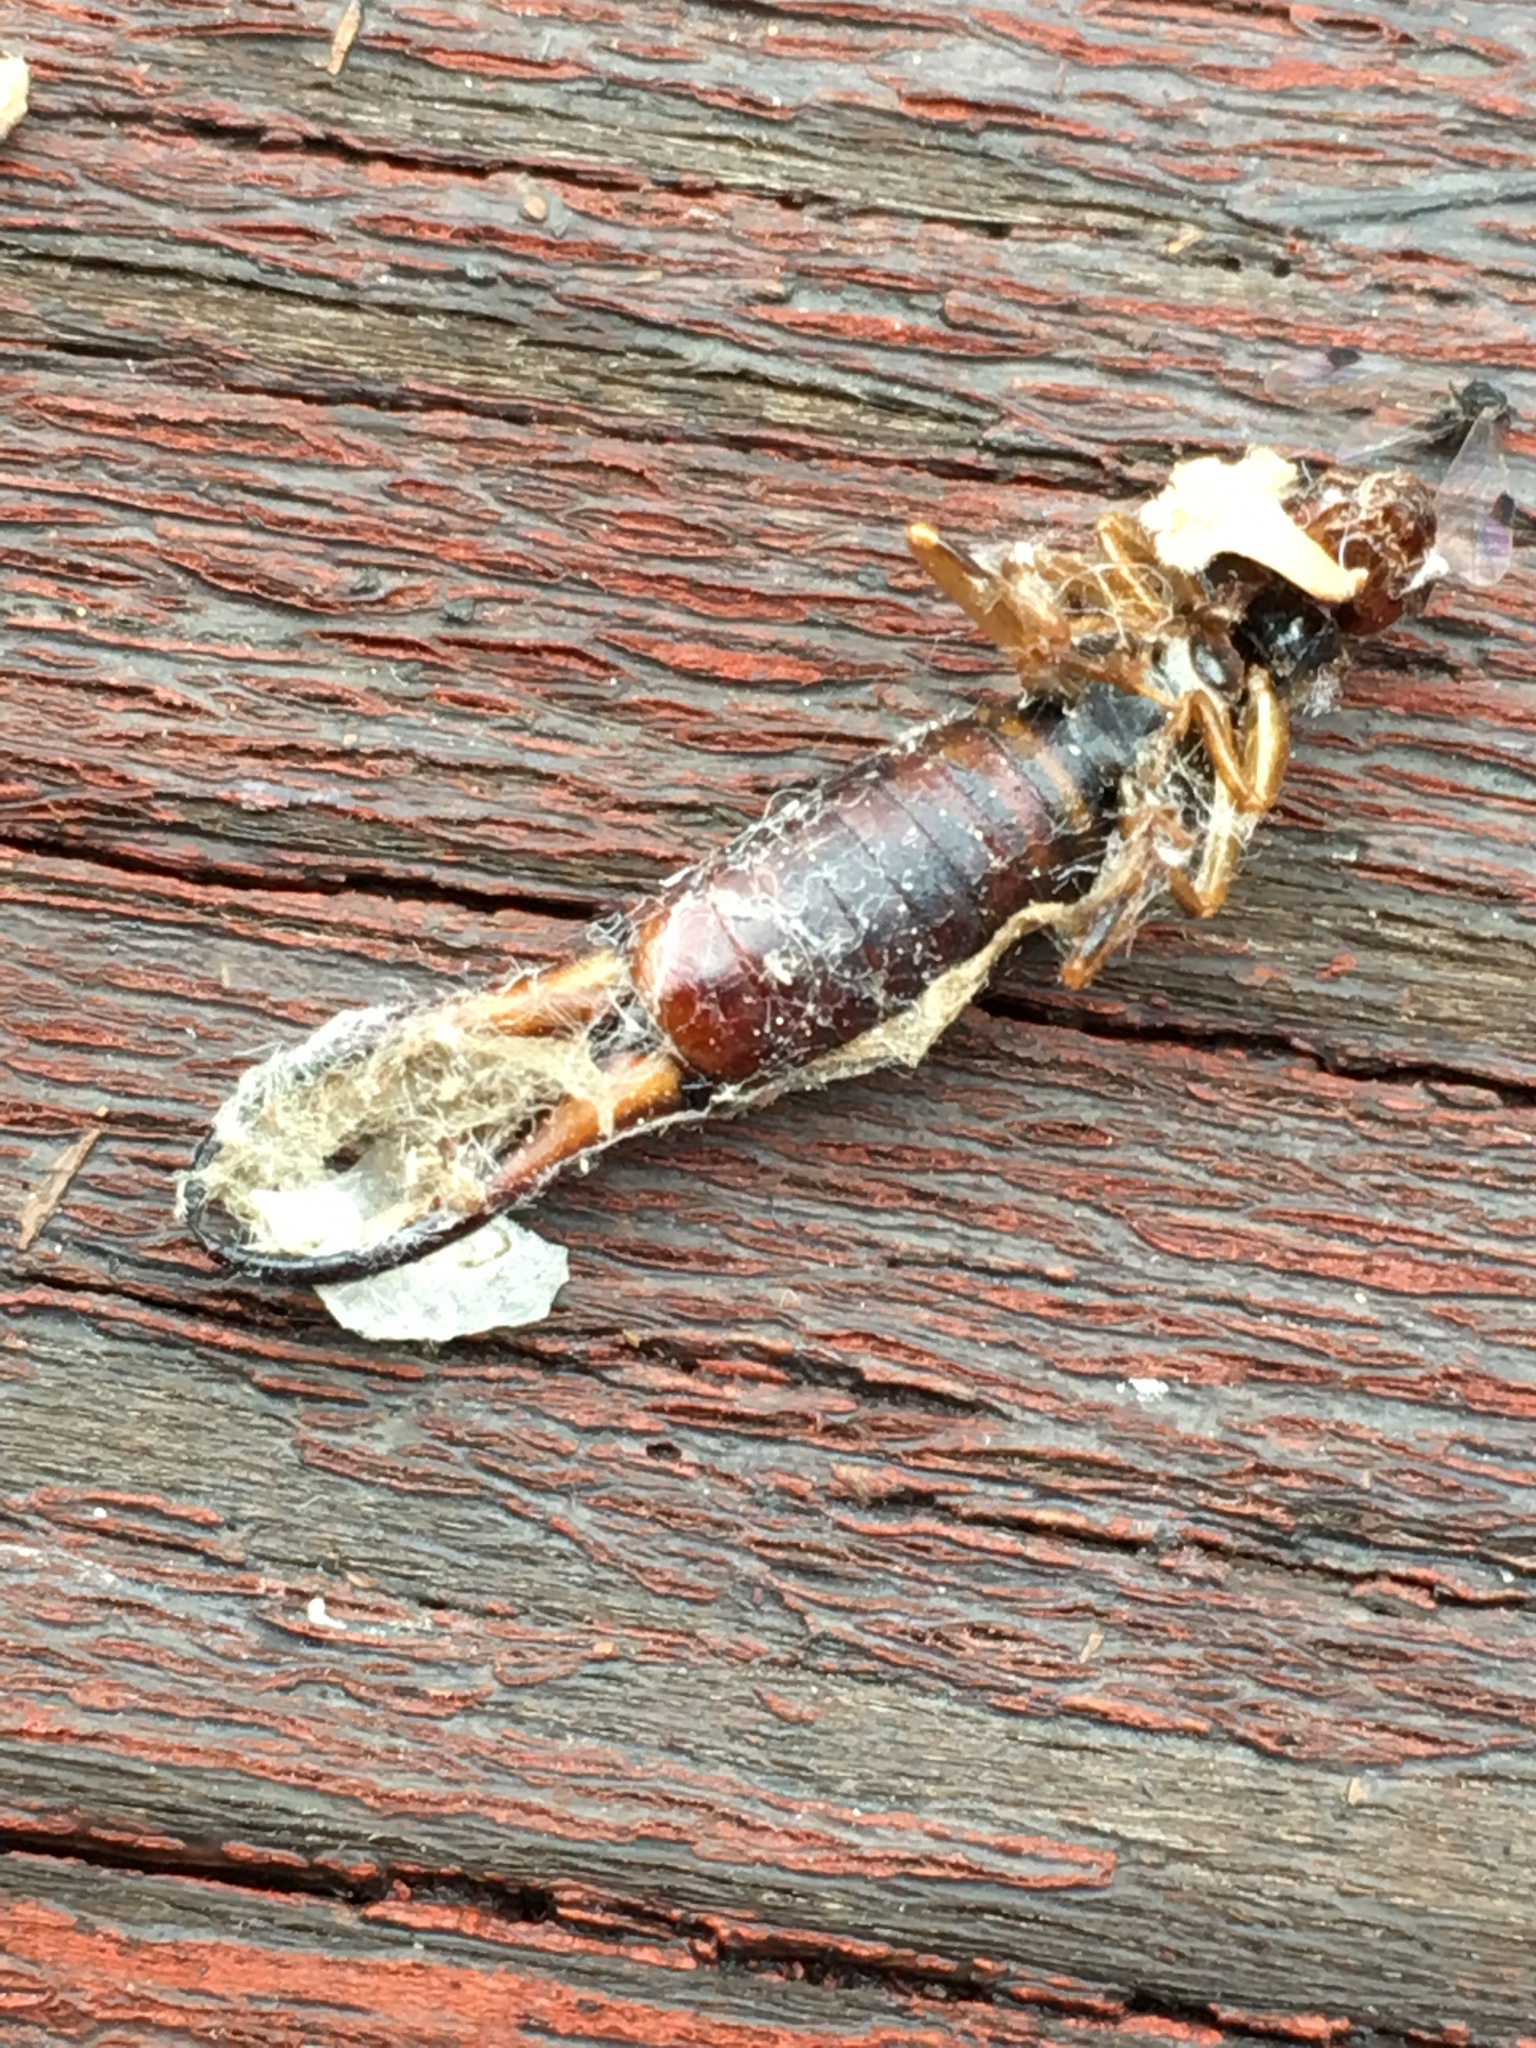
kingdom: Animalia
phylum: Arthropoda
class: Insecta
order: Dermaptera
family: Forficulidae
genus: Forficula
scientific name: Forficula
